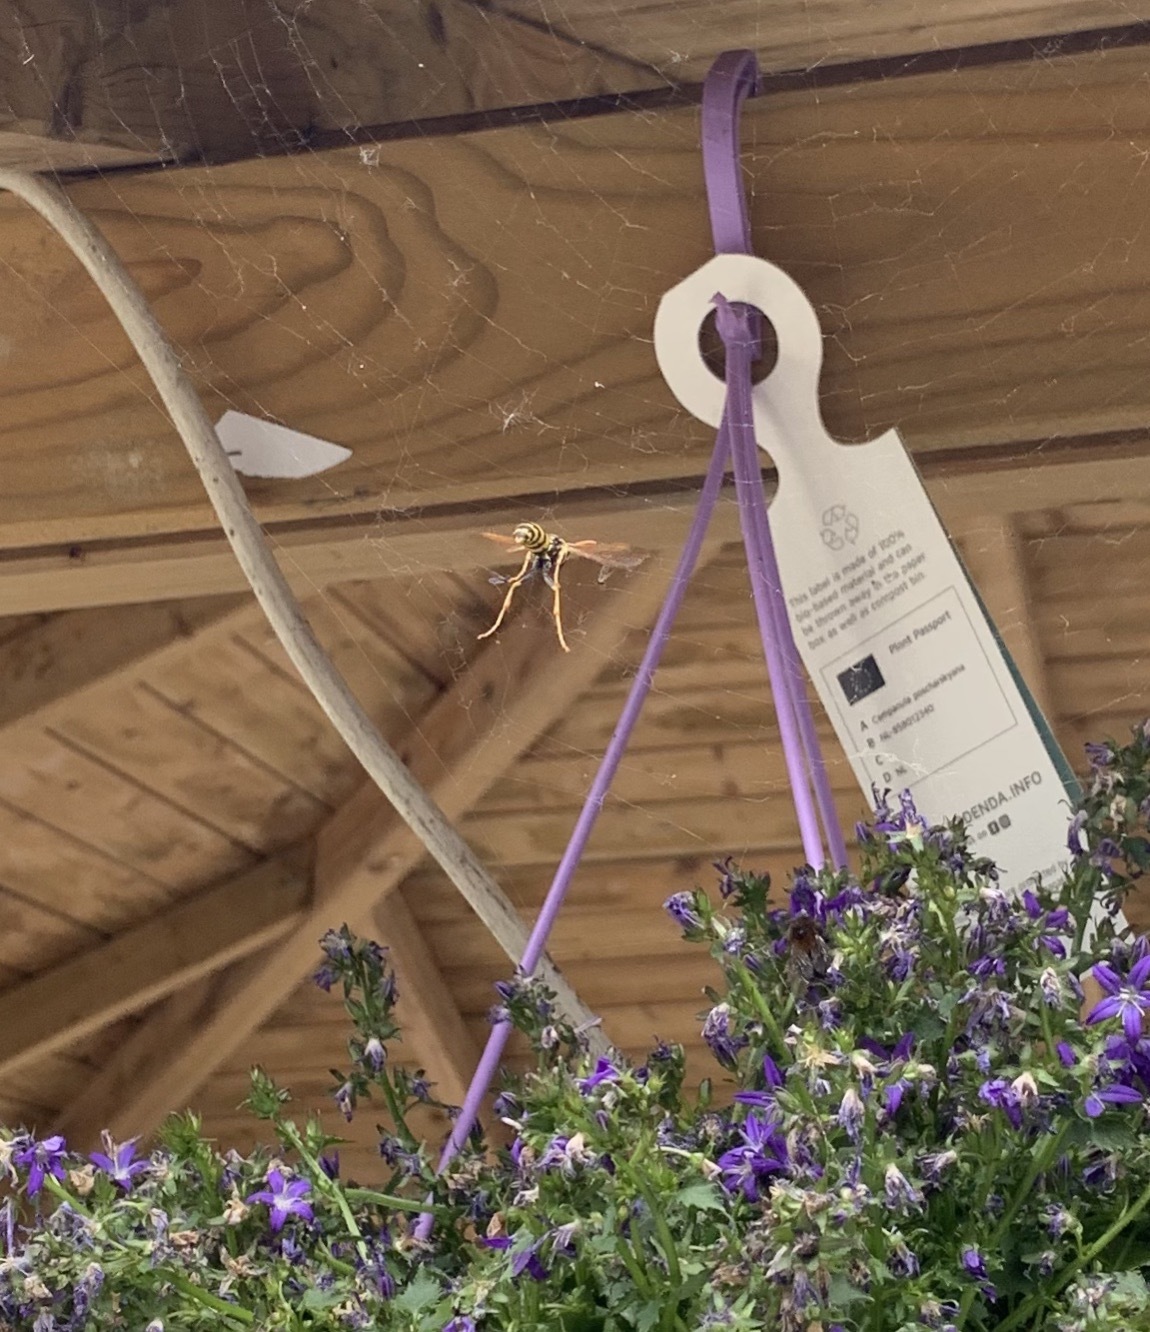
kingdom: Animalia
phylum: Arthropoda
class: Insecta
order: Hymenoptera
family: Eumenidae
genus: Polistes
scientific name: Polistes dominula
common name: Paper wasp
